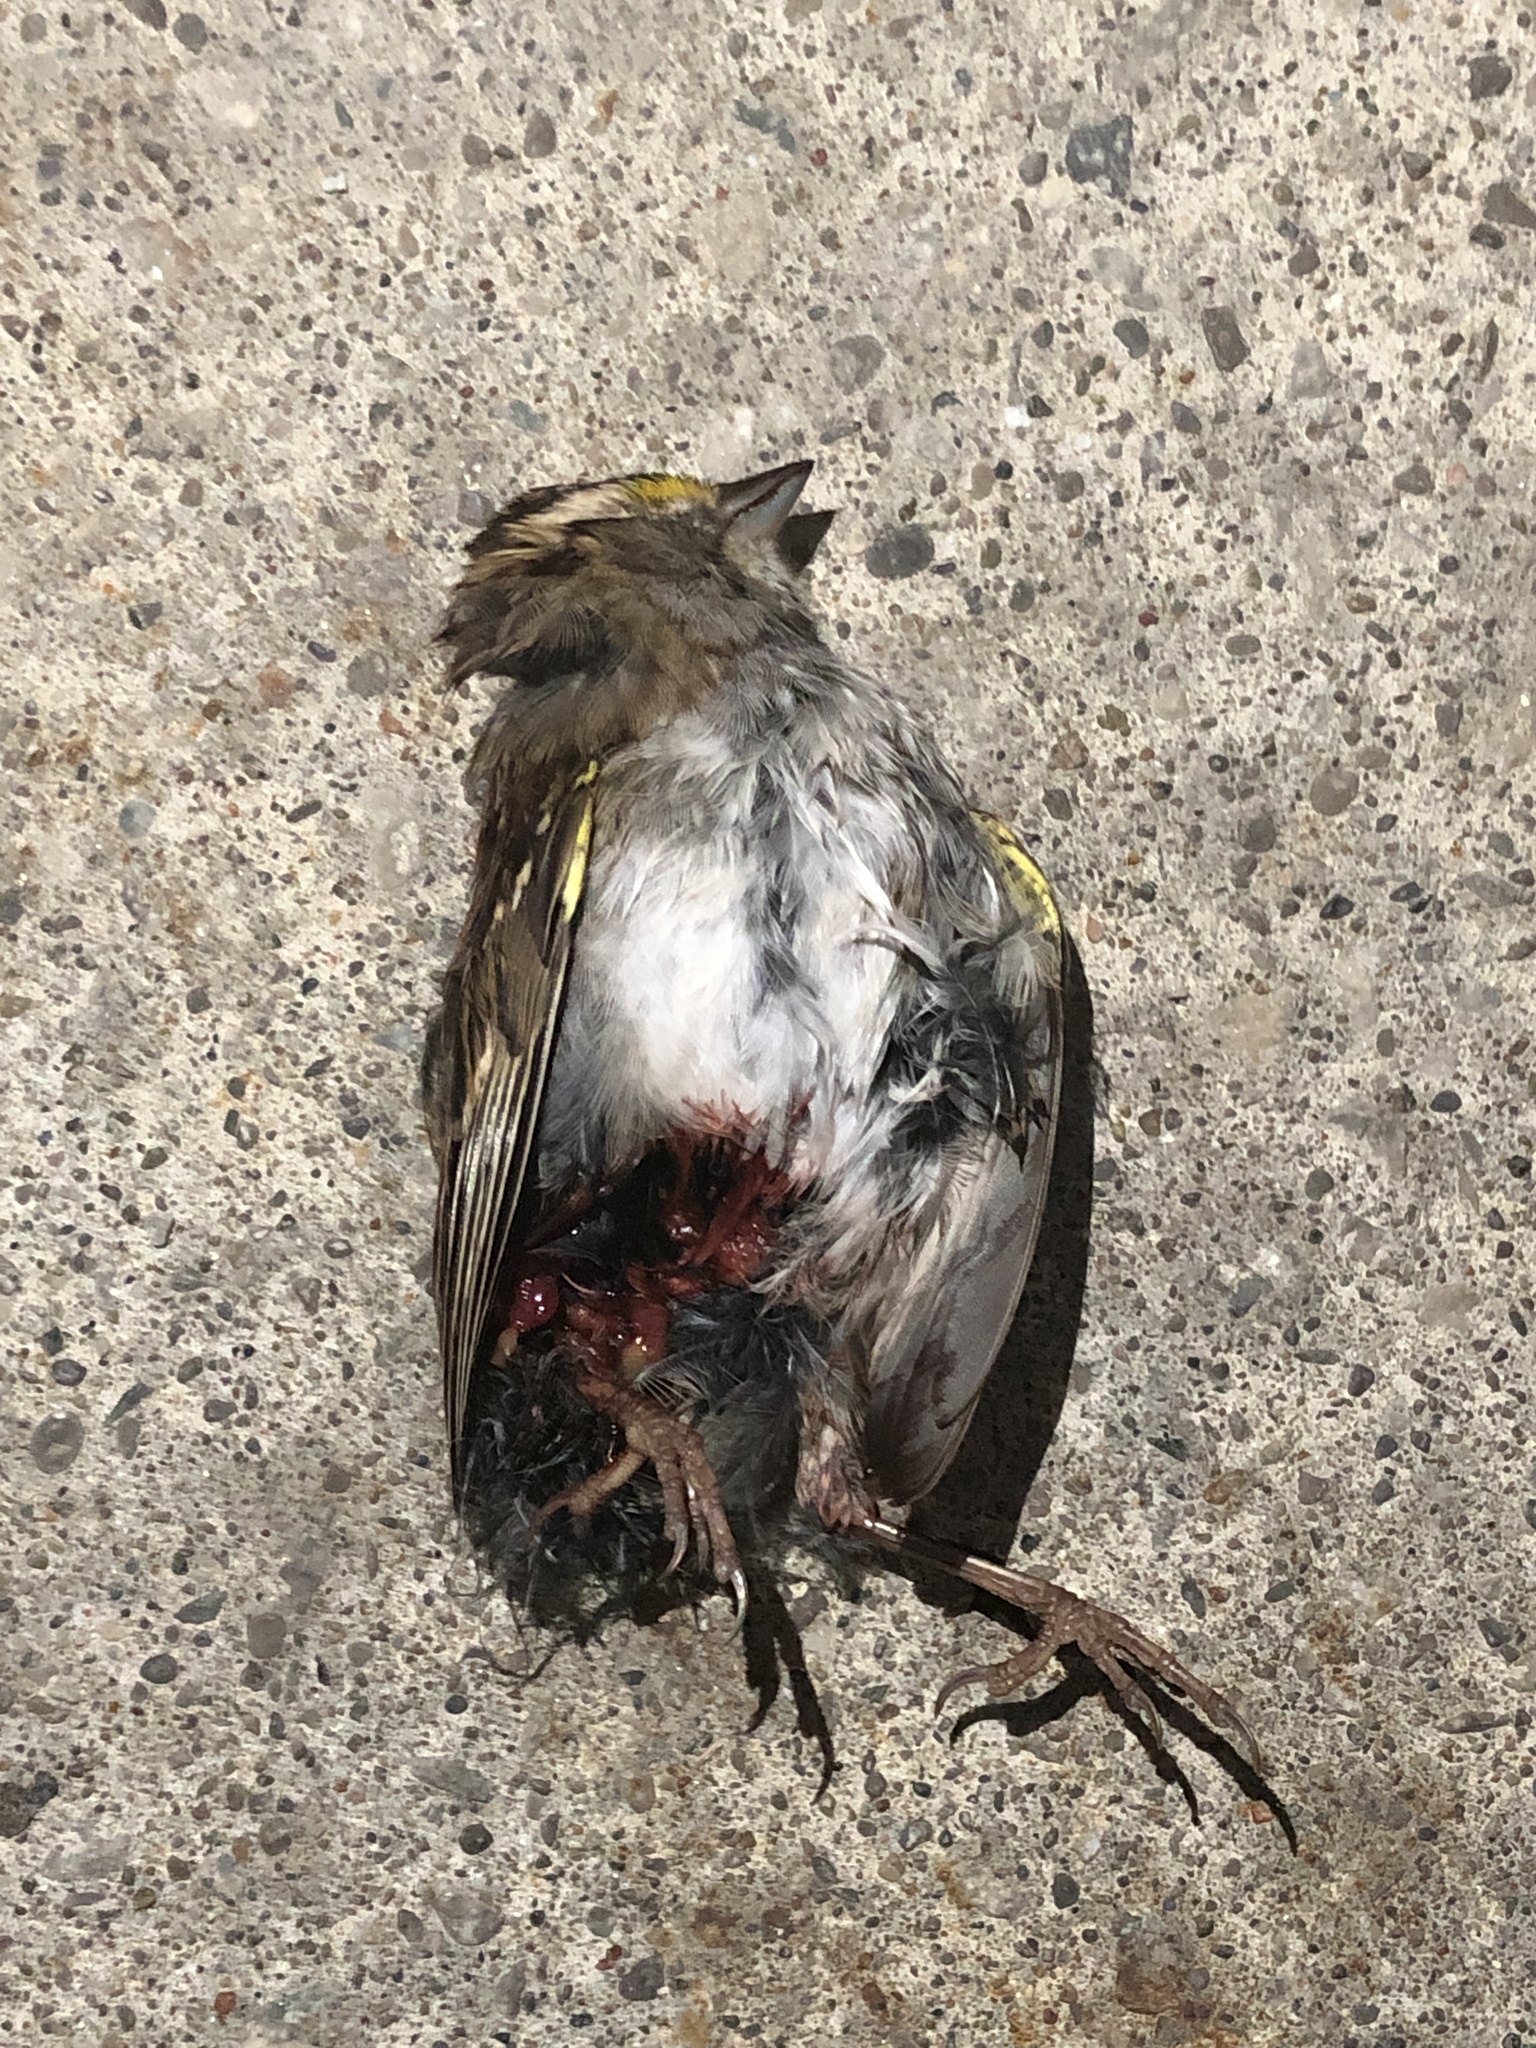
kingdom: Animalia
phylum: Chordata
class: Aves
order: Passeriformes
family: Passerellidae
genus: Zonotrichia
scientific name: Zonotrichia albicollis
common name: White-throated sparrow
